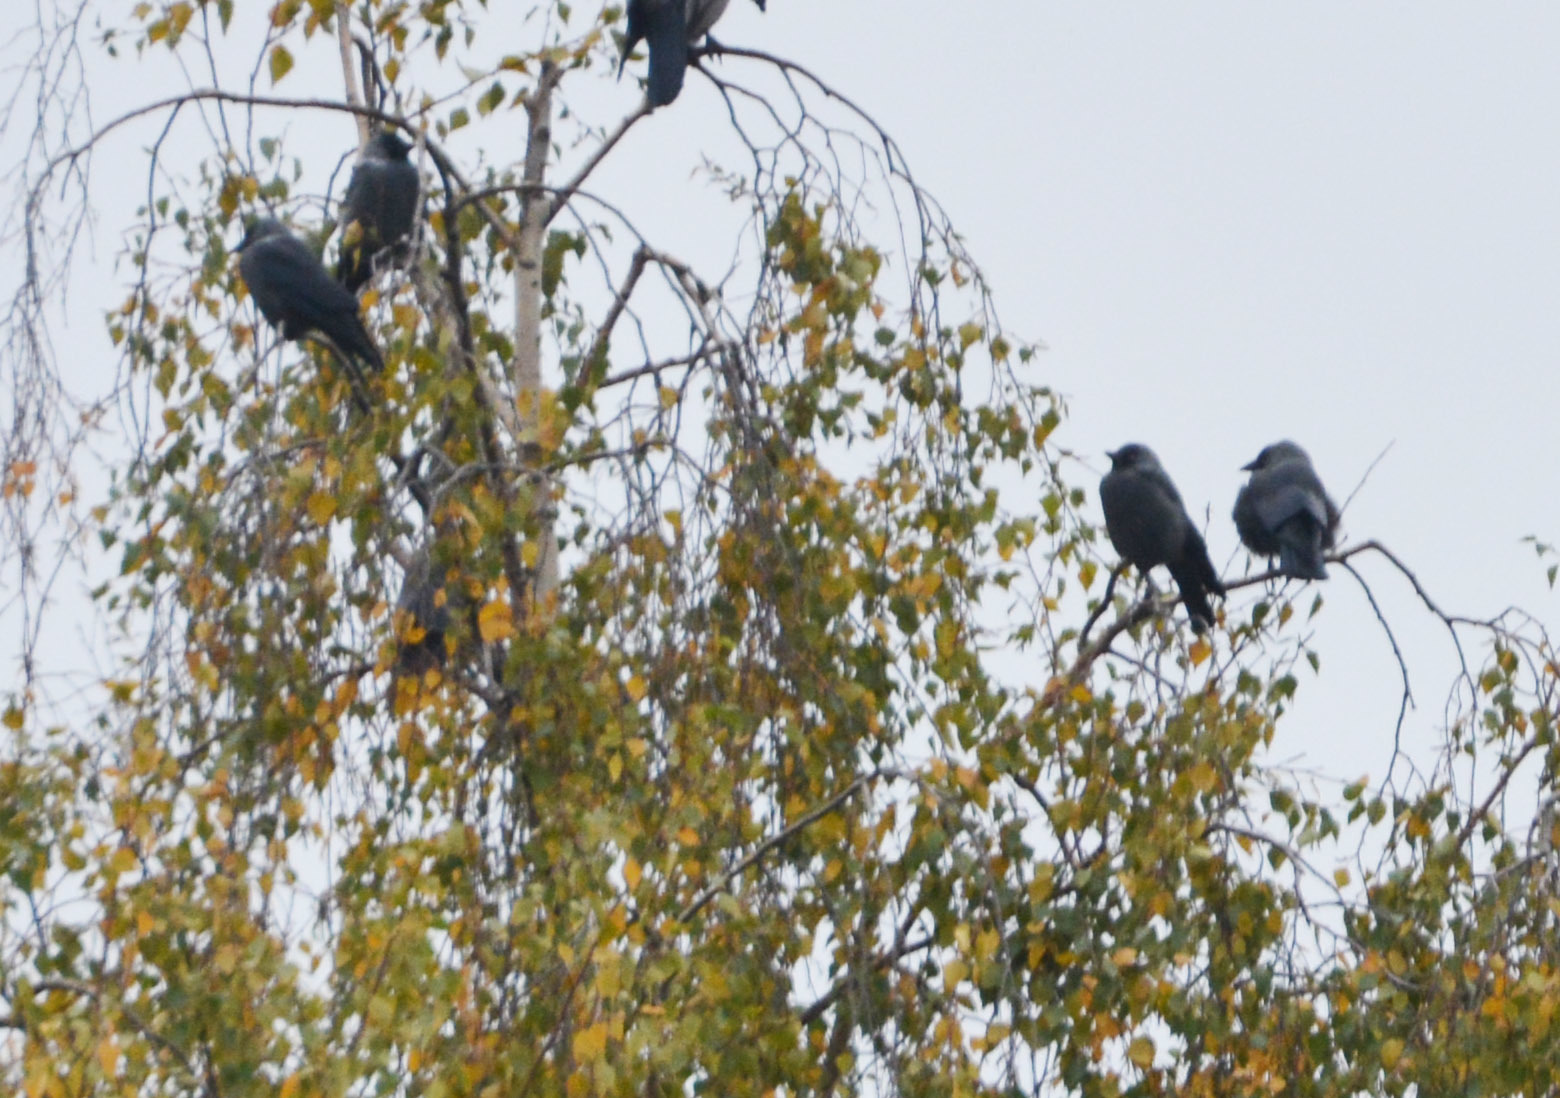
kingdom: Animalia
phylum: Chordata
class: Aves
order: Passeriformes
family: Corvidae
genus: Coloeus
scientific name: Coloeus monedula
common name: Western jackdaw
